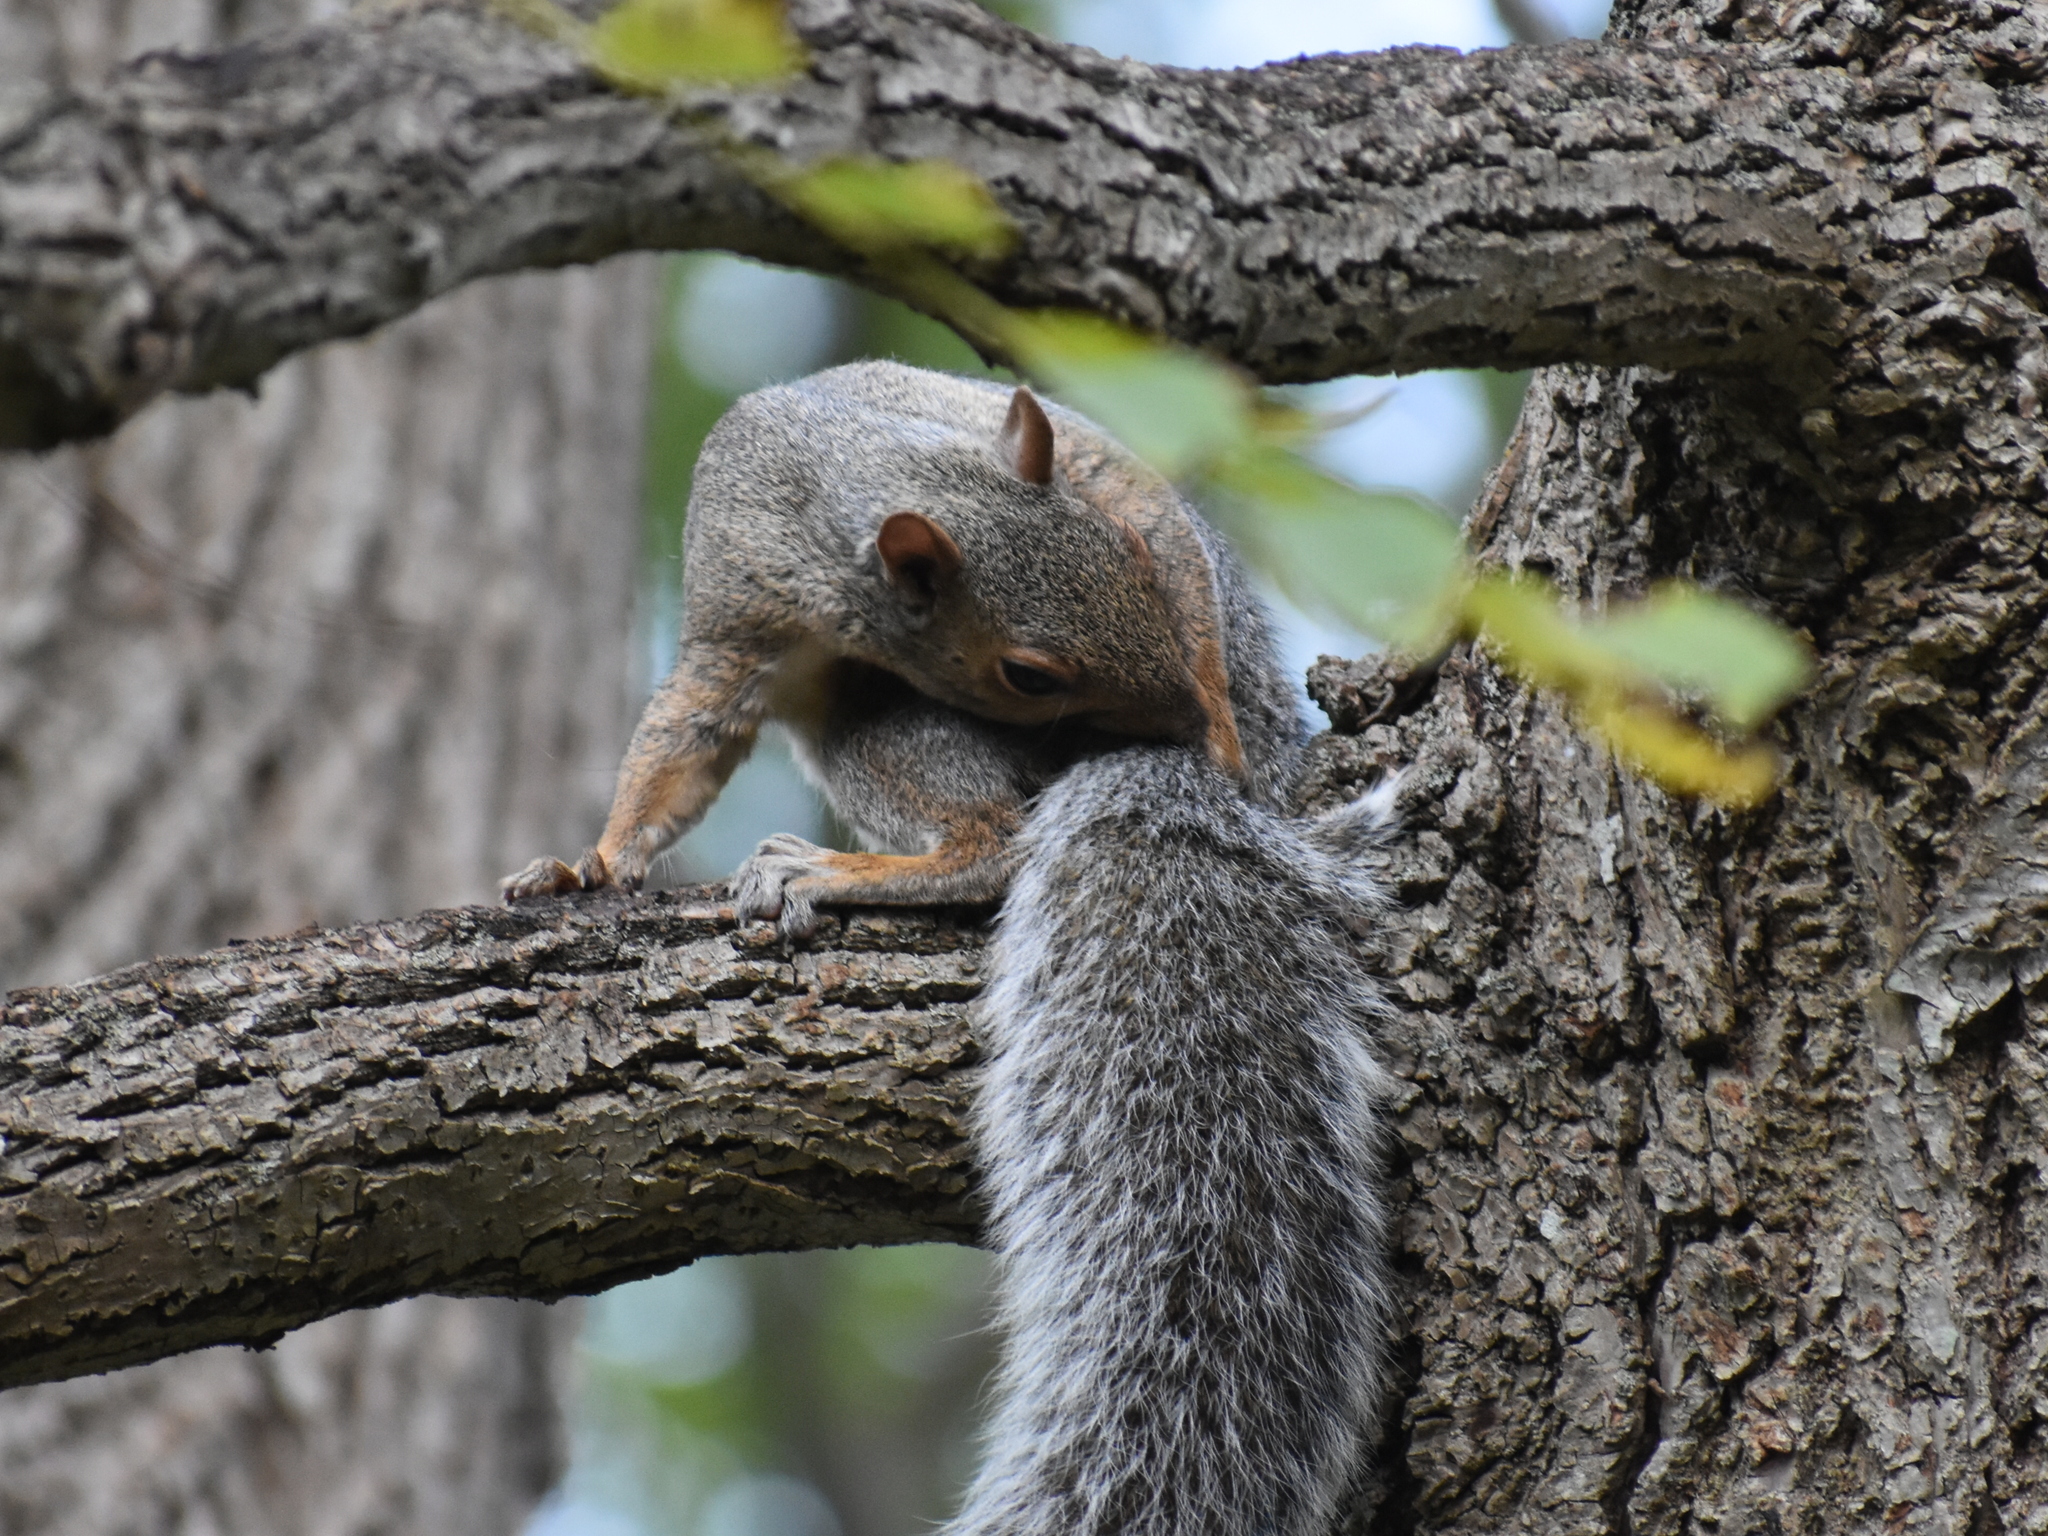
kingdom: Animalia
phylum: Chordata
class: Mammalia
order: Rodentia
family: Sciuridae
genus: Sciurus
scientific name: Sciurus carolinensis
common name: Eastern gray squirrel
